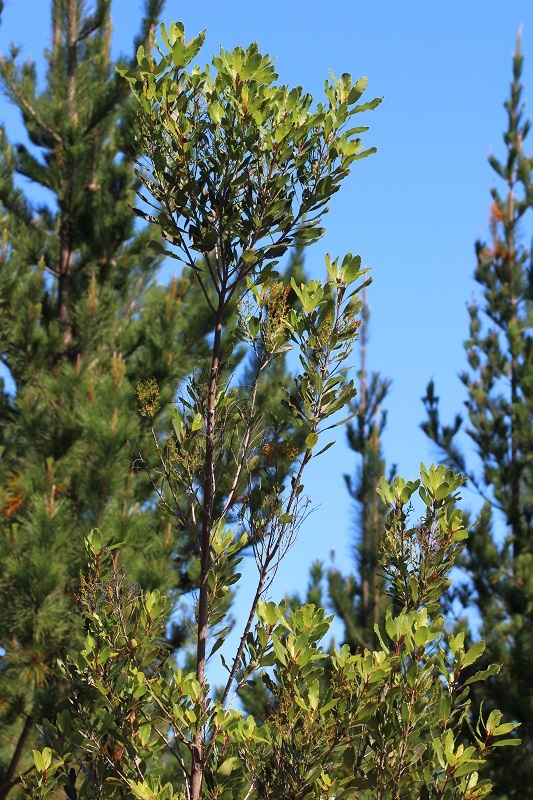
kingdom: Plantae
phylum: Tracheophyta
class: Magnoliopsida
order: Sapindales
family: Anacardiaceae
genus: Laurophyllus
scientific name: Laurophyllus capensis
